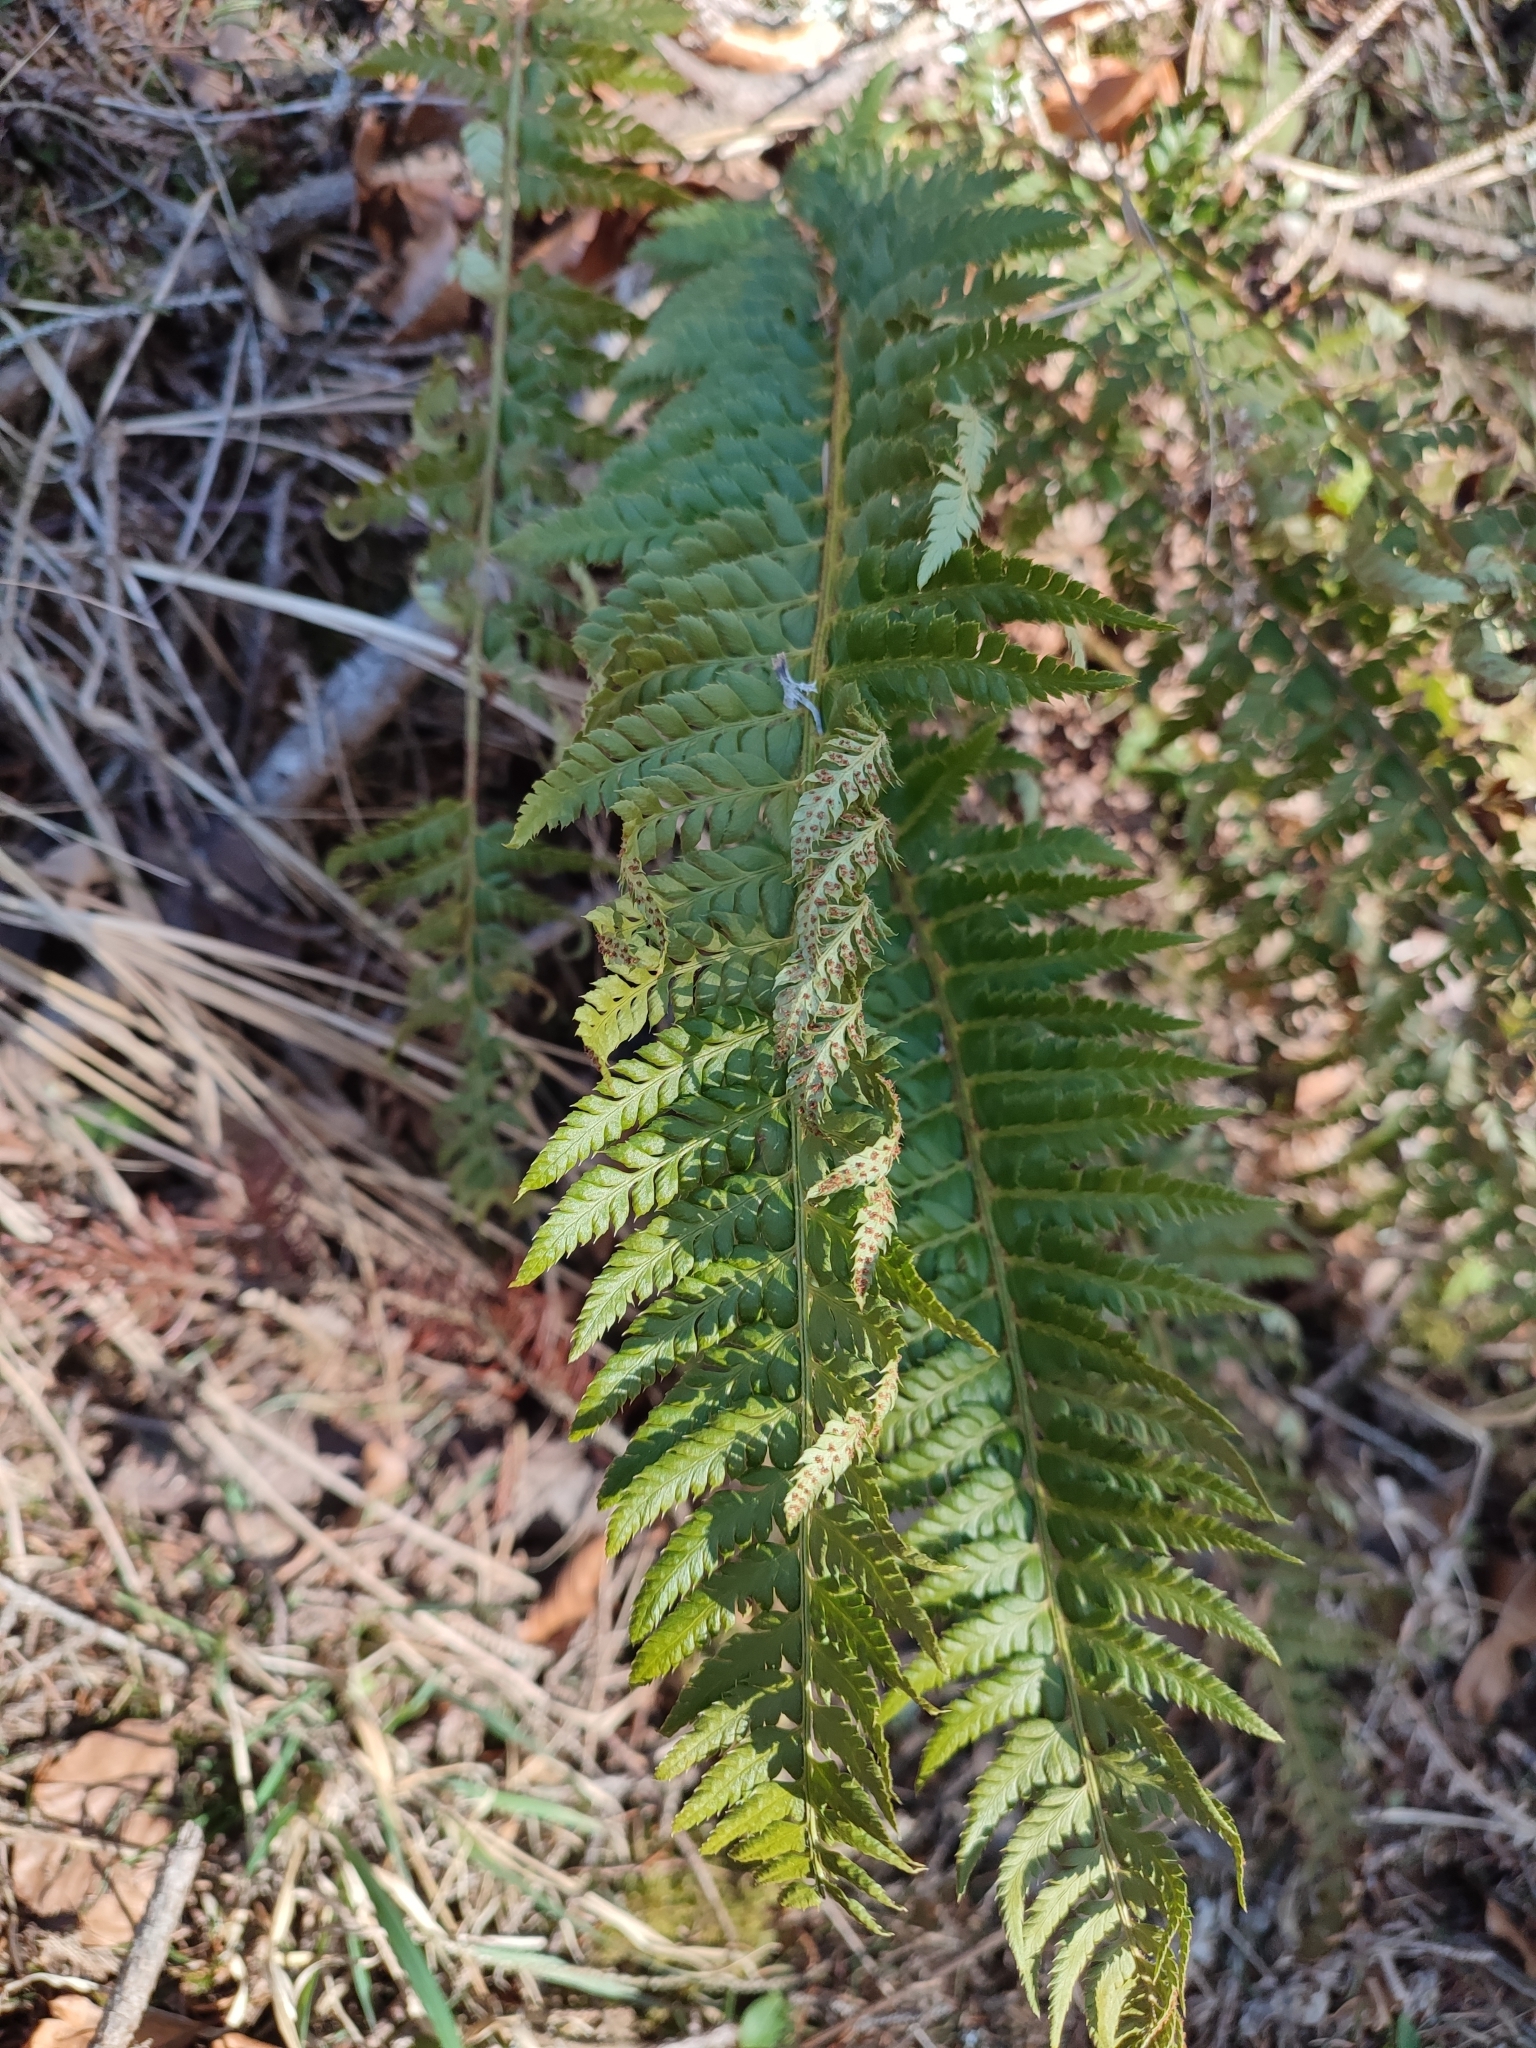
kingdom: Plantae
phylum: Tracheophyta
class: Polypodiopsida
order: Polypodiales
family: Dryopteridaceae
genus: Polystichum
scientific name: Polystichum aculeatum
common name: Hard shield-fern
